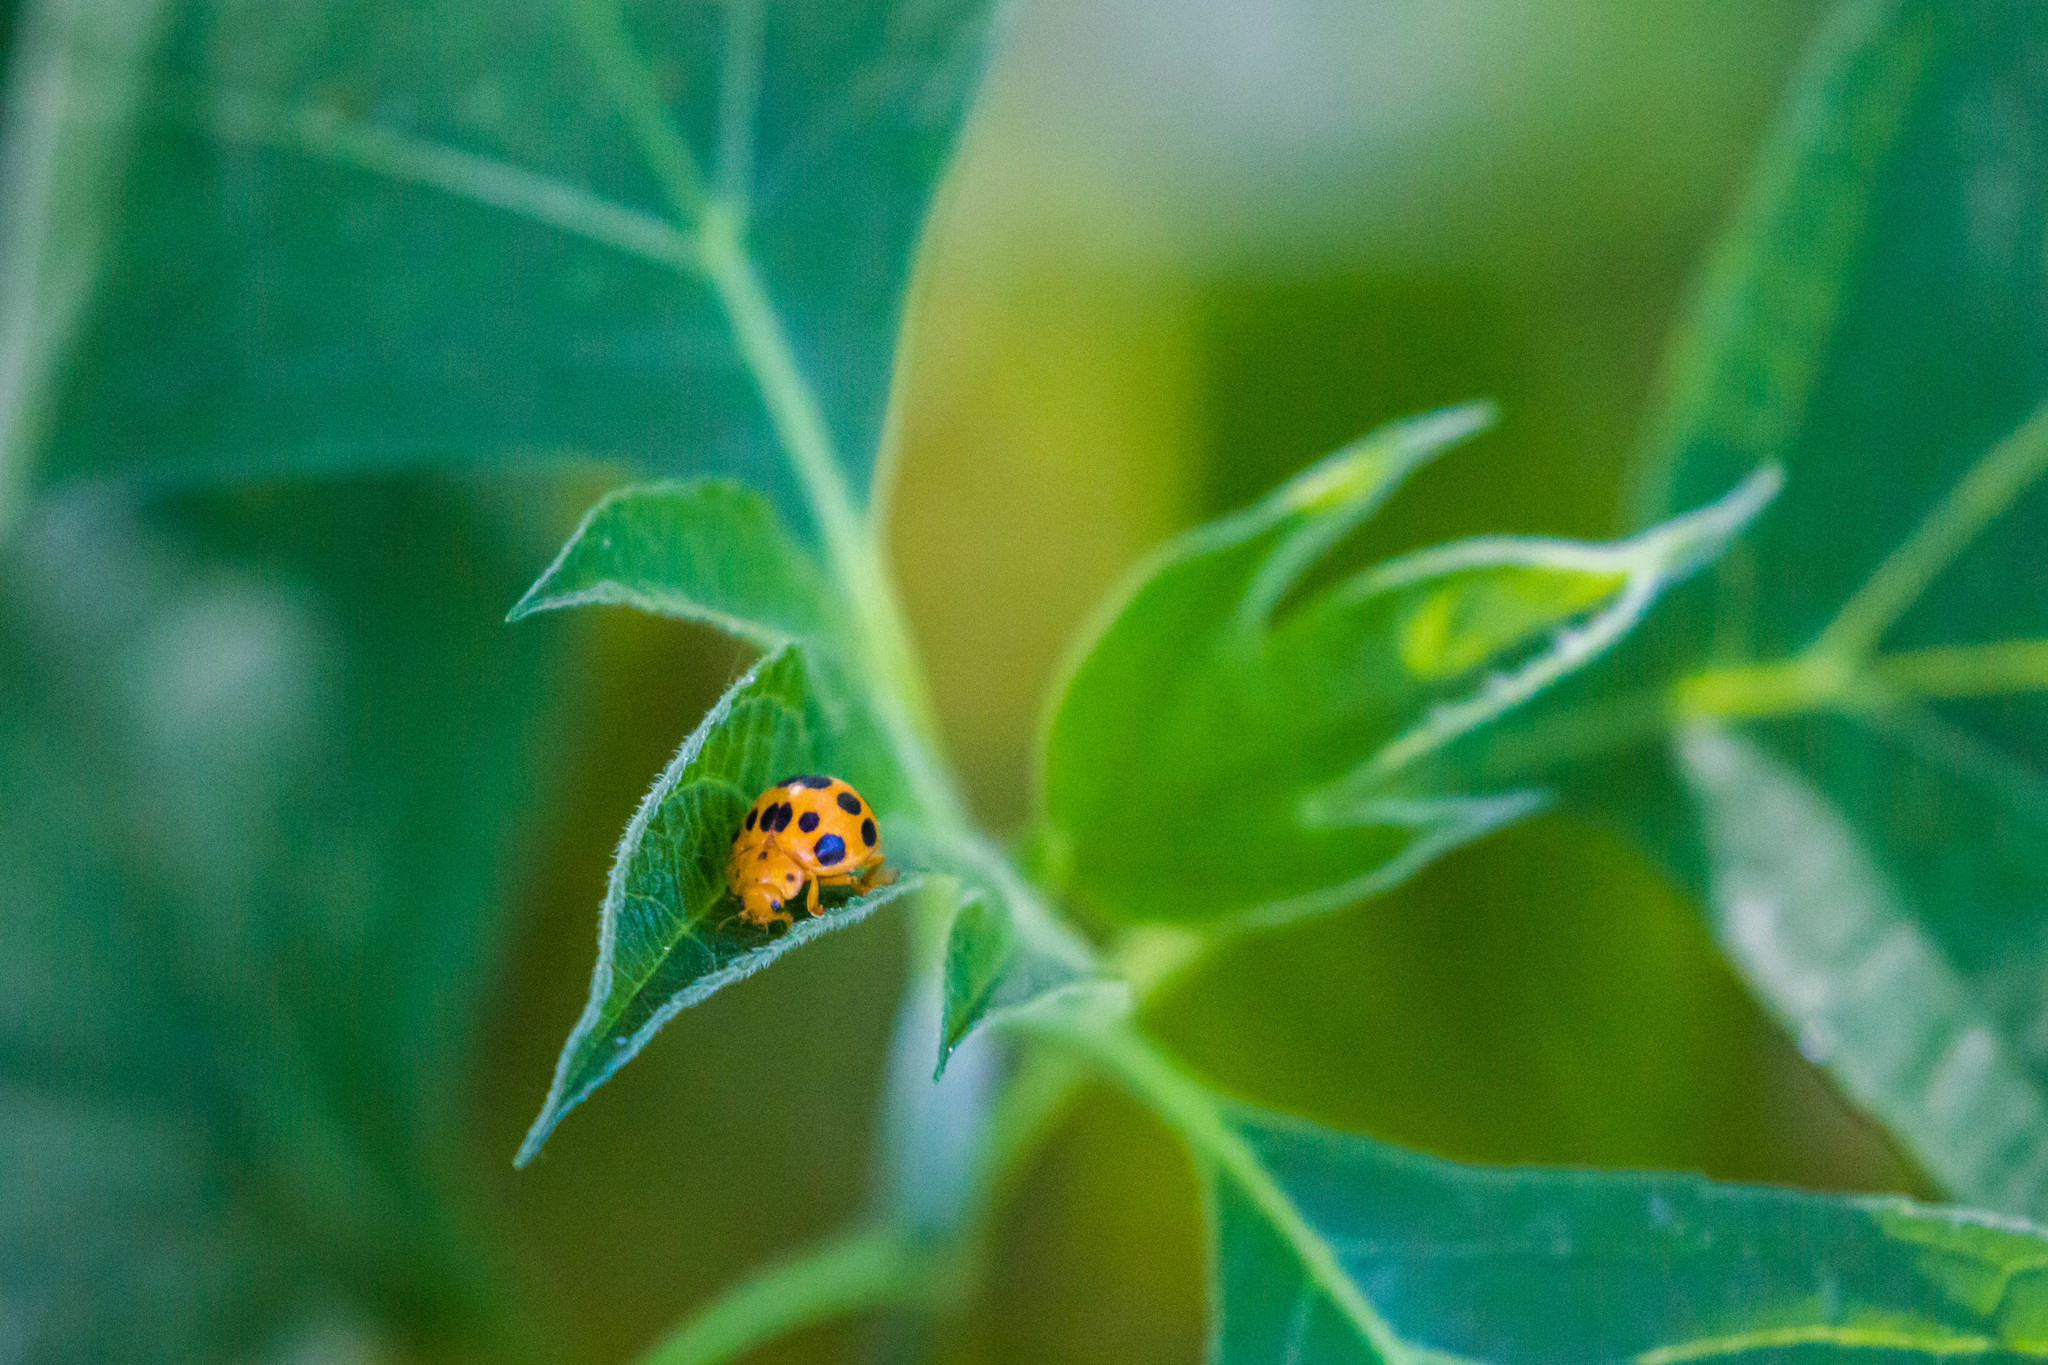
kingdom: Animalia
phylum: Arthropoda
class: Insecta
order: Coleoptera
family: Coccinellidae
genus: Epilachna
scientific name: Epilachna borealis
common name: Squash beetle
